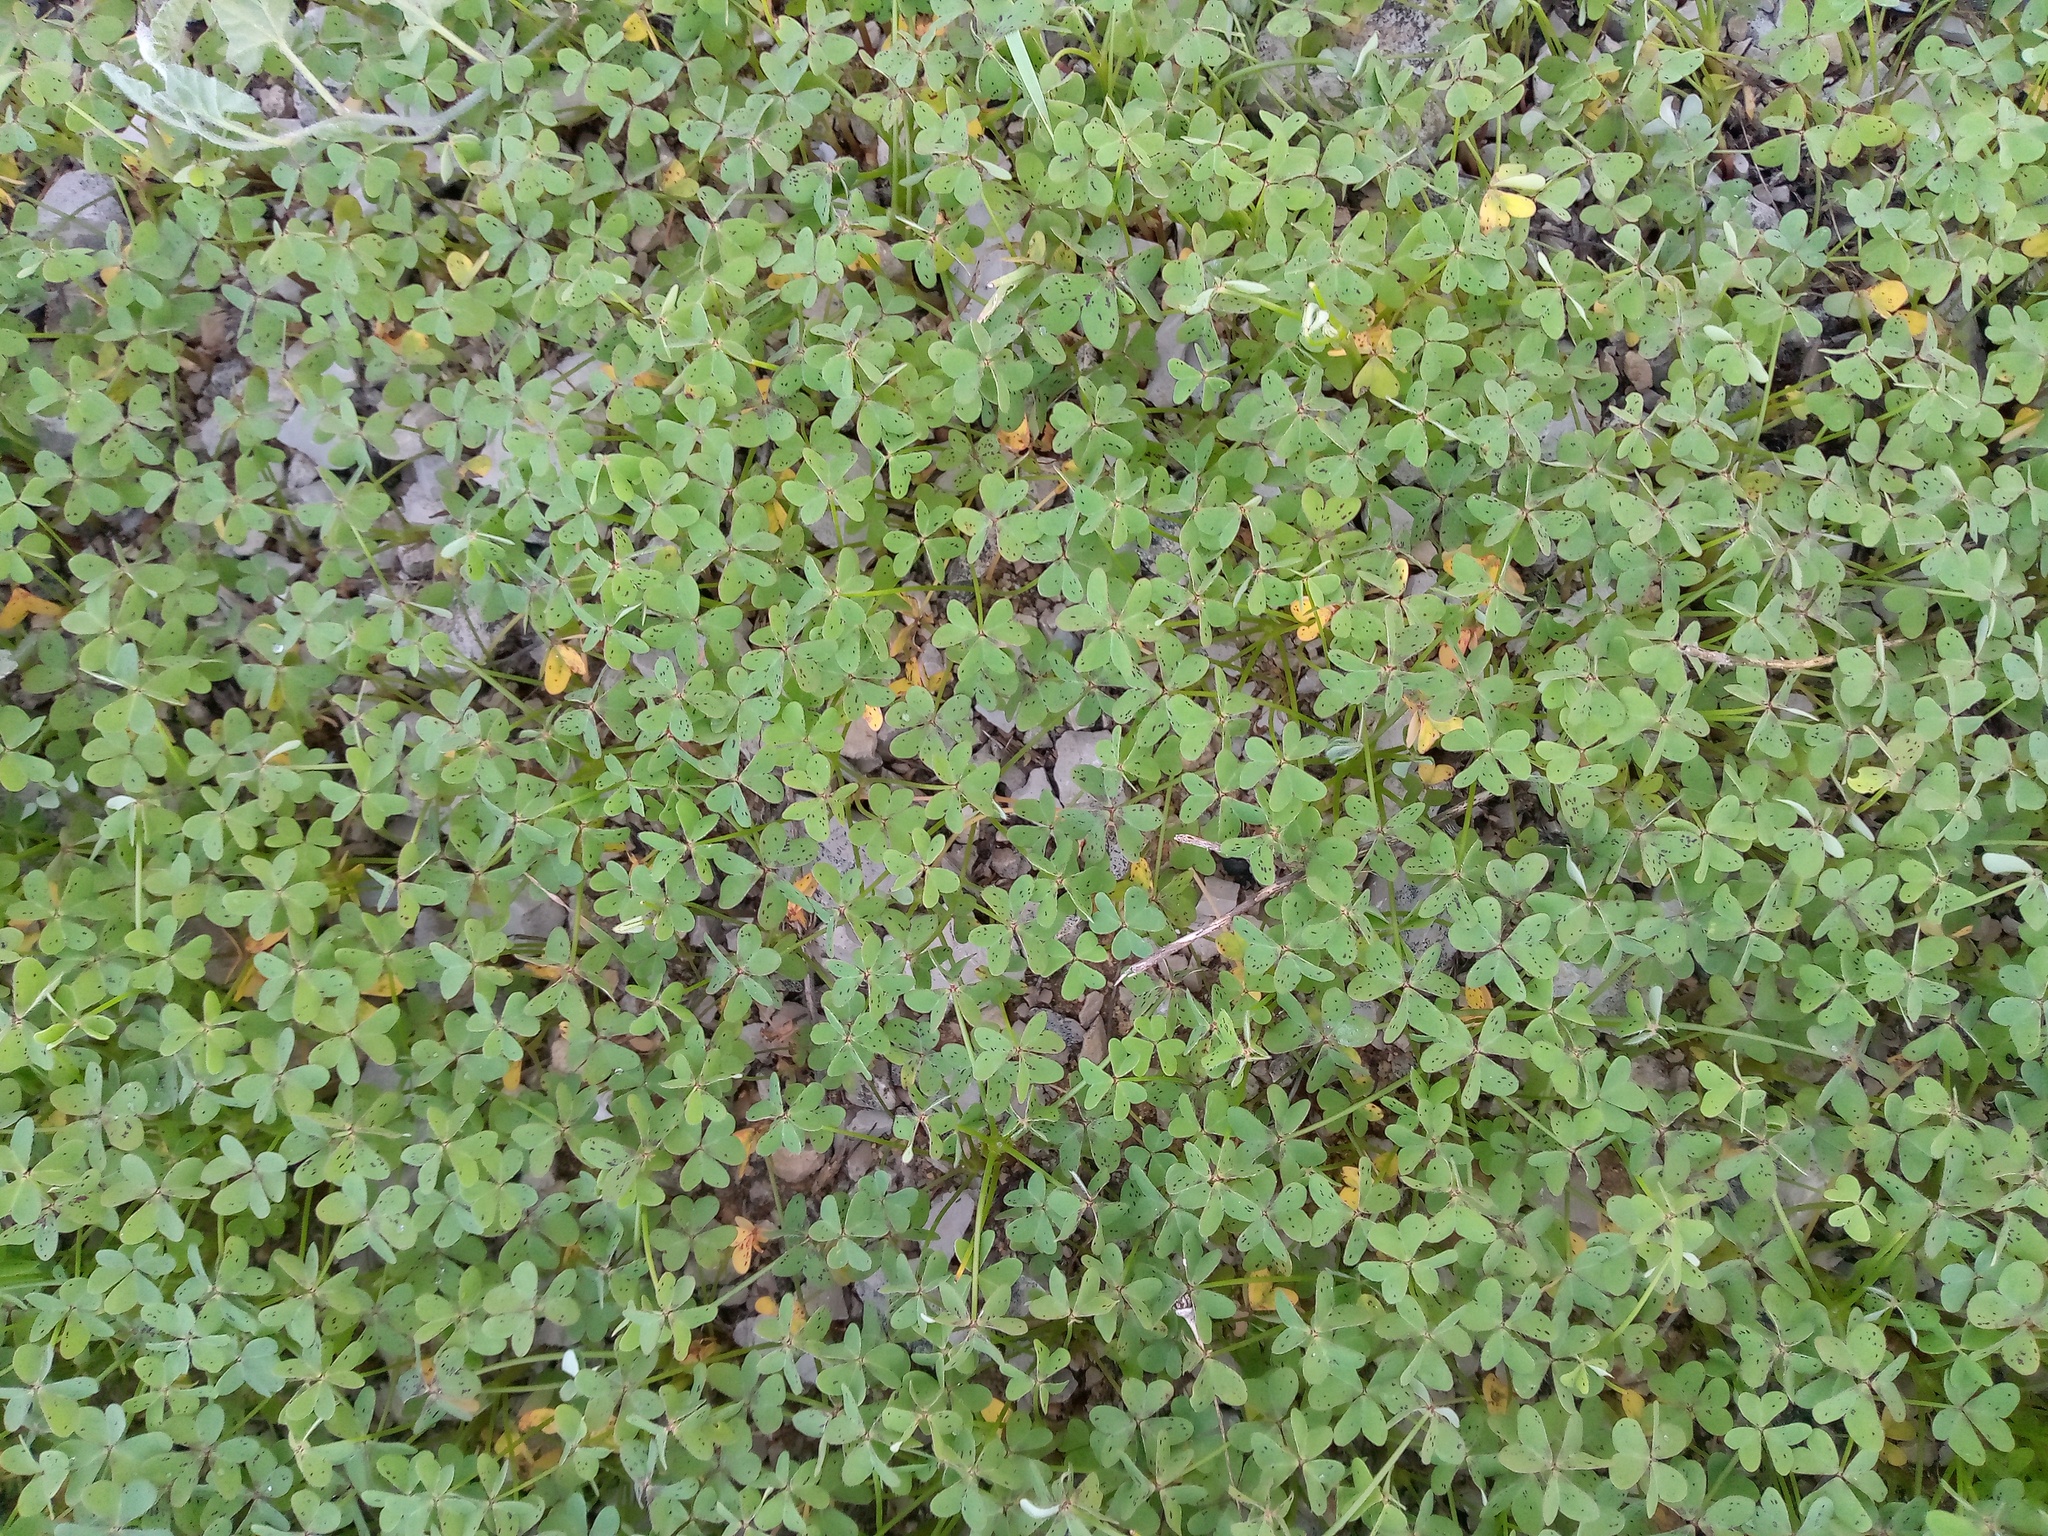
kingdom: Plantae
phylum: Tracheophyta
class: Magnoliopsida
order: Oxalidales
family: Oxalidaceae
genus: Oxalis
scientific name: Oxalis pes-caprae
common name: Bermuda-buttercup
